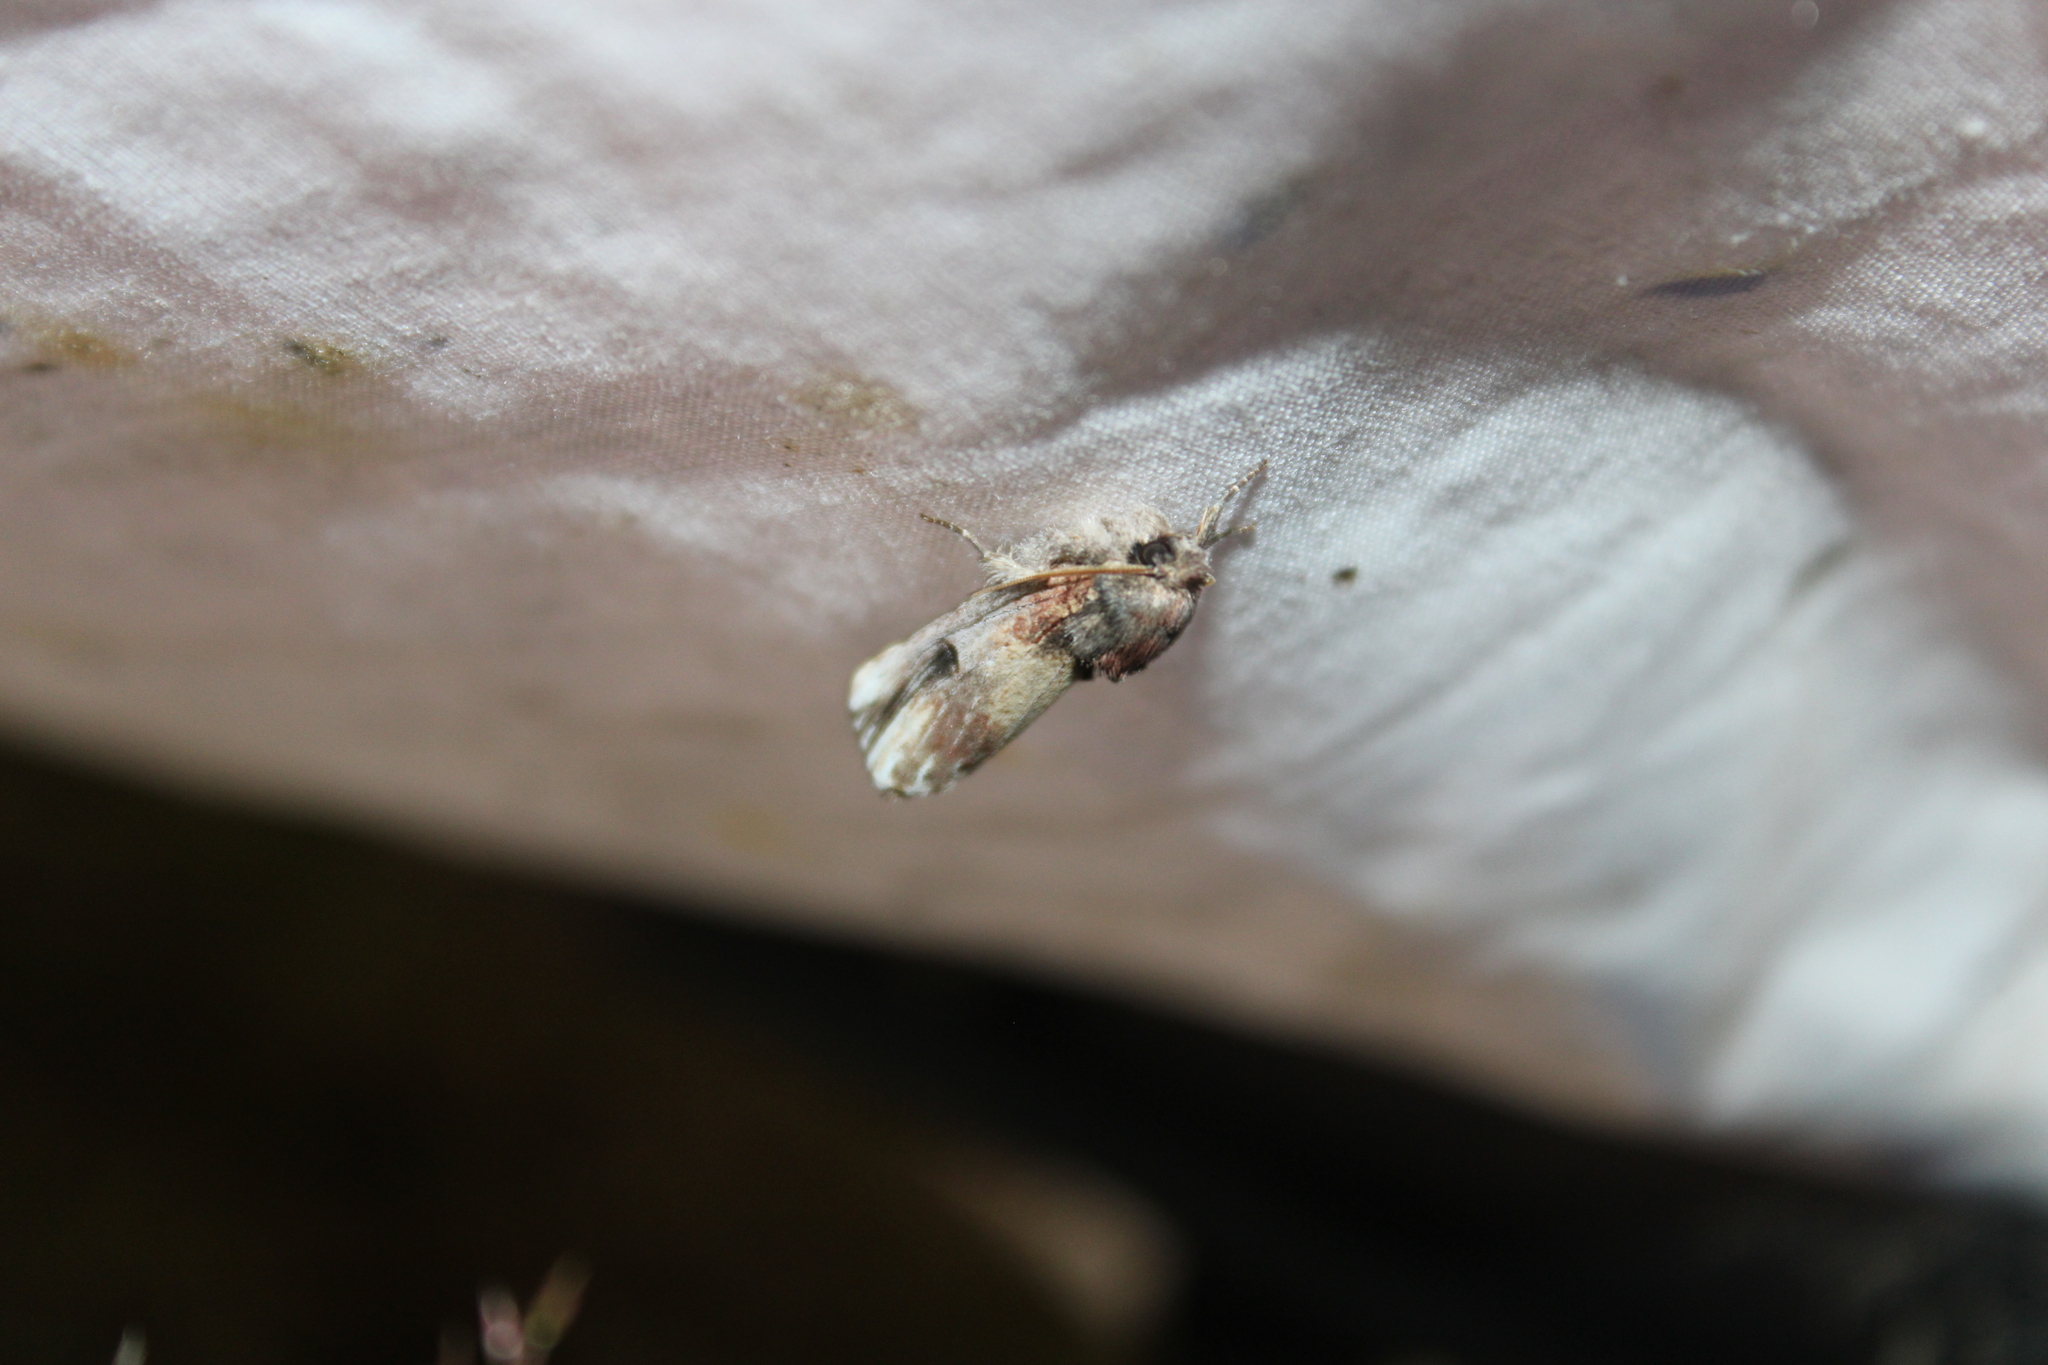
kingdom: Animalia
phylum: Arthropoda
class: Insecta
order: Lepidoptera
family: Notodontidae
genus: Schizura
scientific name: Schizura badia
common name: Chestnut schizura
